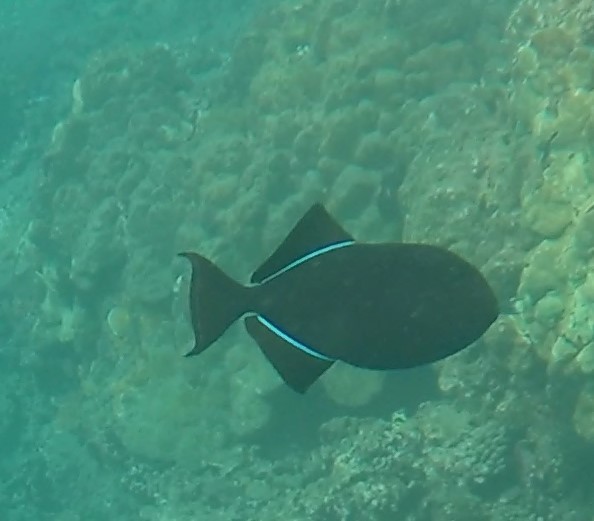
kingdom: Animalia
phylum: Chordata
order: Tetraodontiformes
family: Balistidae
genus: Melichthys
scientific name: Melichthys niger
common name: Black durgon
